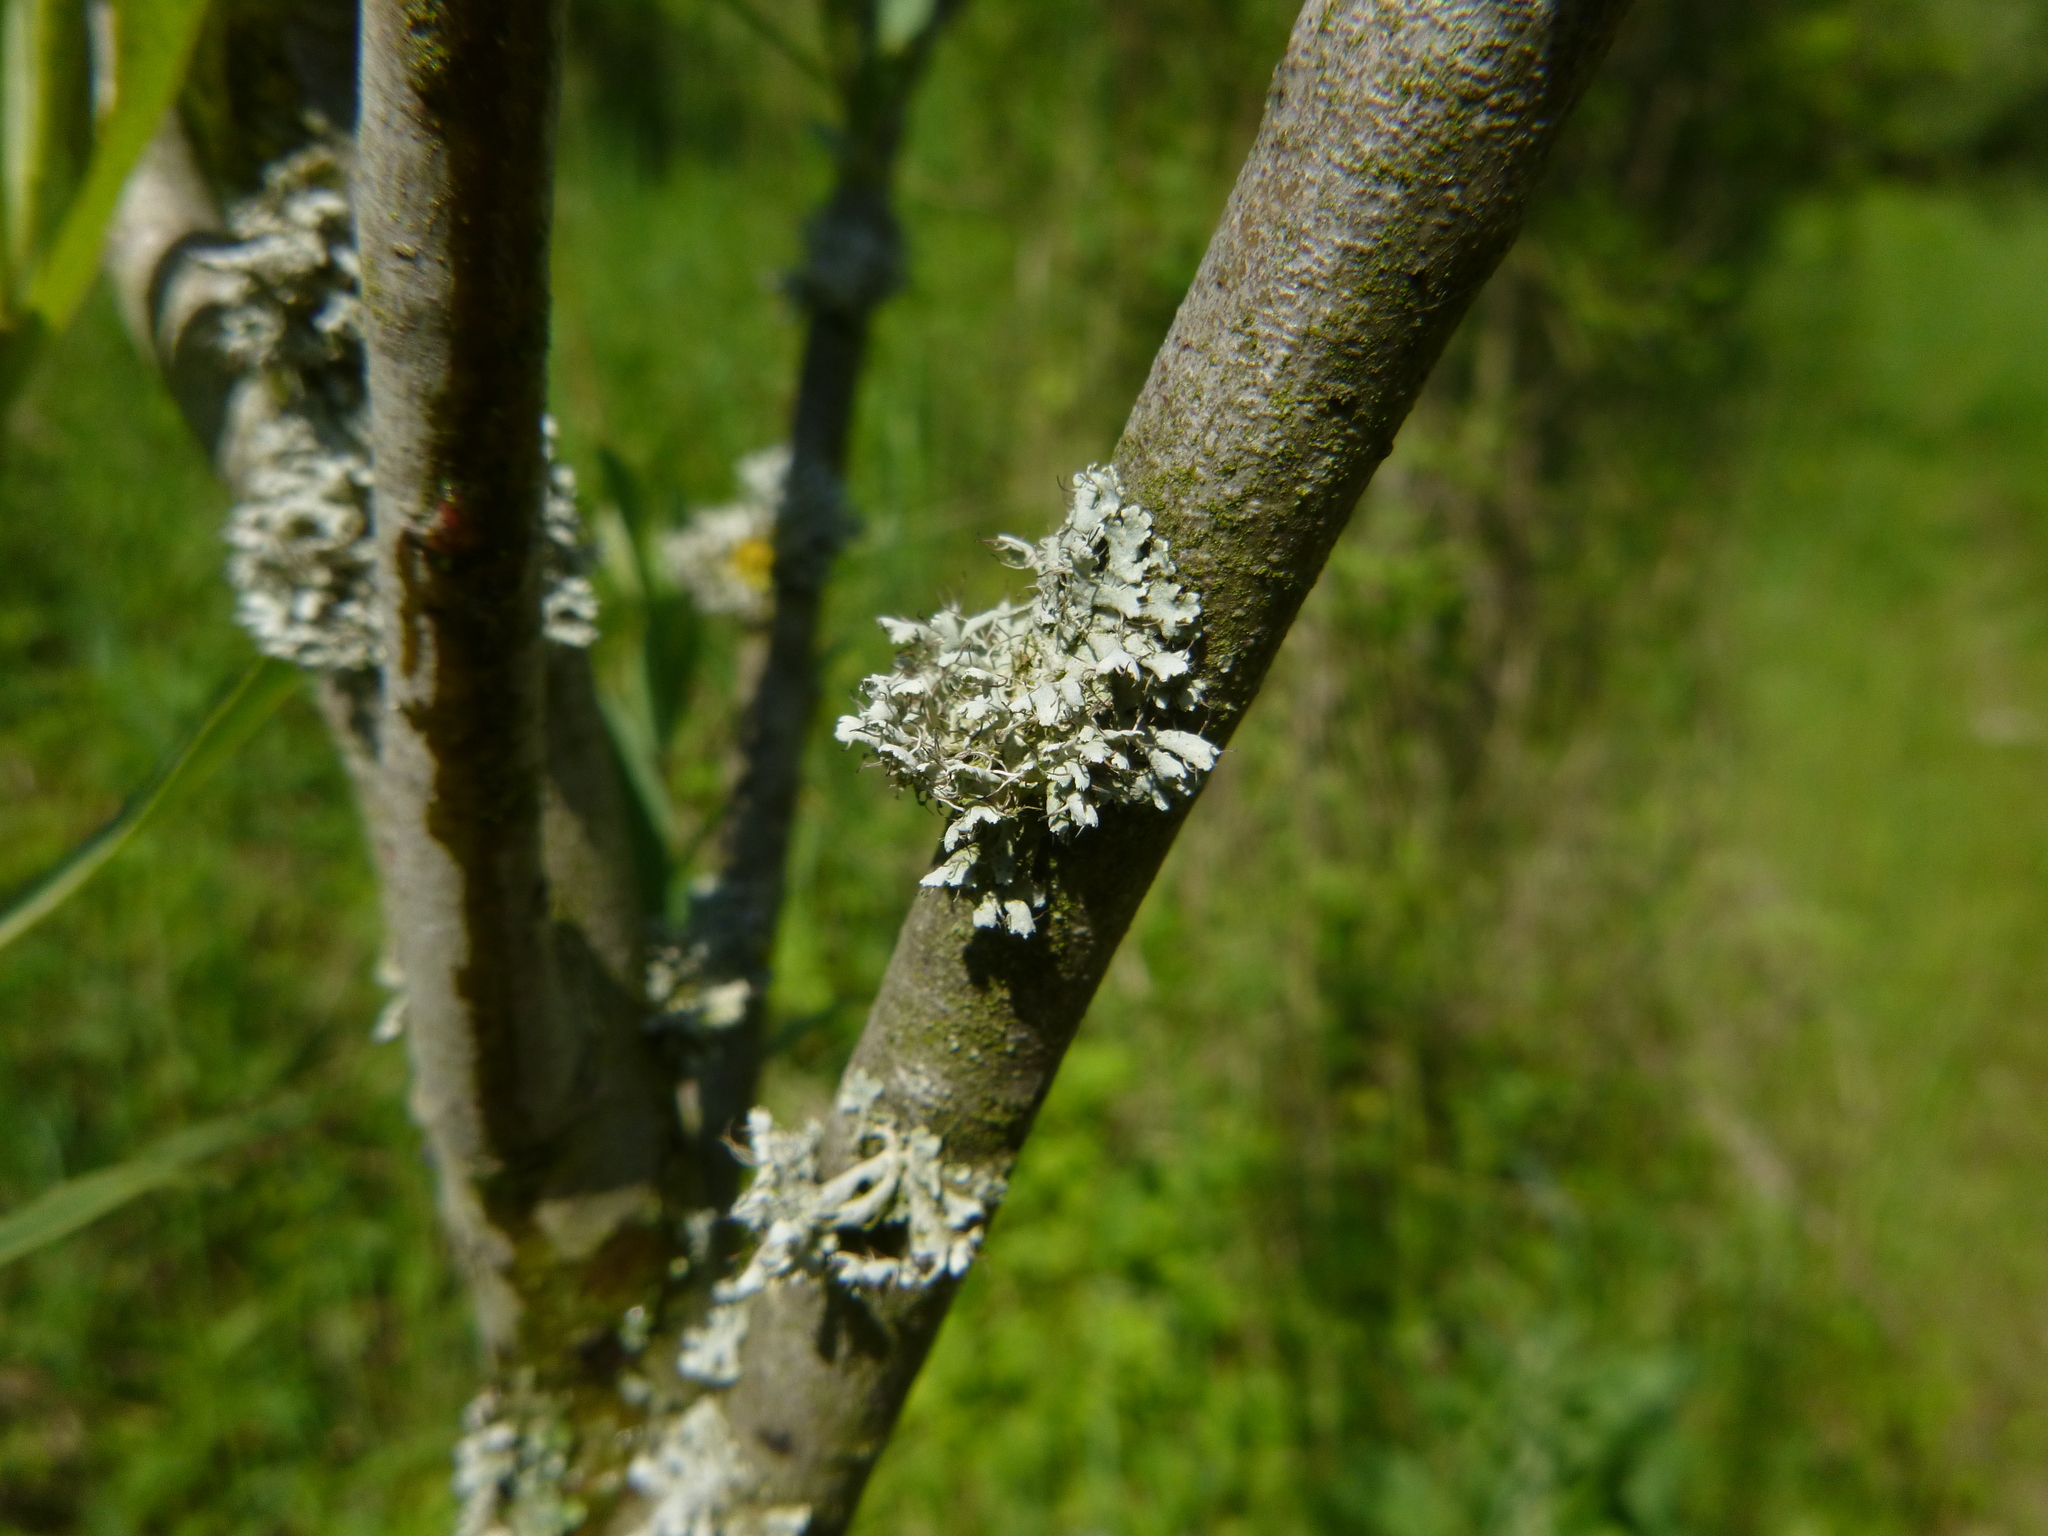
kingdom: Fungi
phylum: Ascomycota
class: Lecanoromycetes
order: Caliciales
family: Physciaceae
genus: Physcia
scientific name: Physcia adscendens
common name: Hooded rosette lichen
